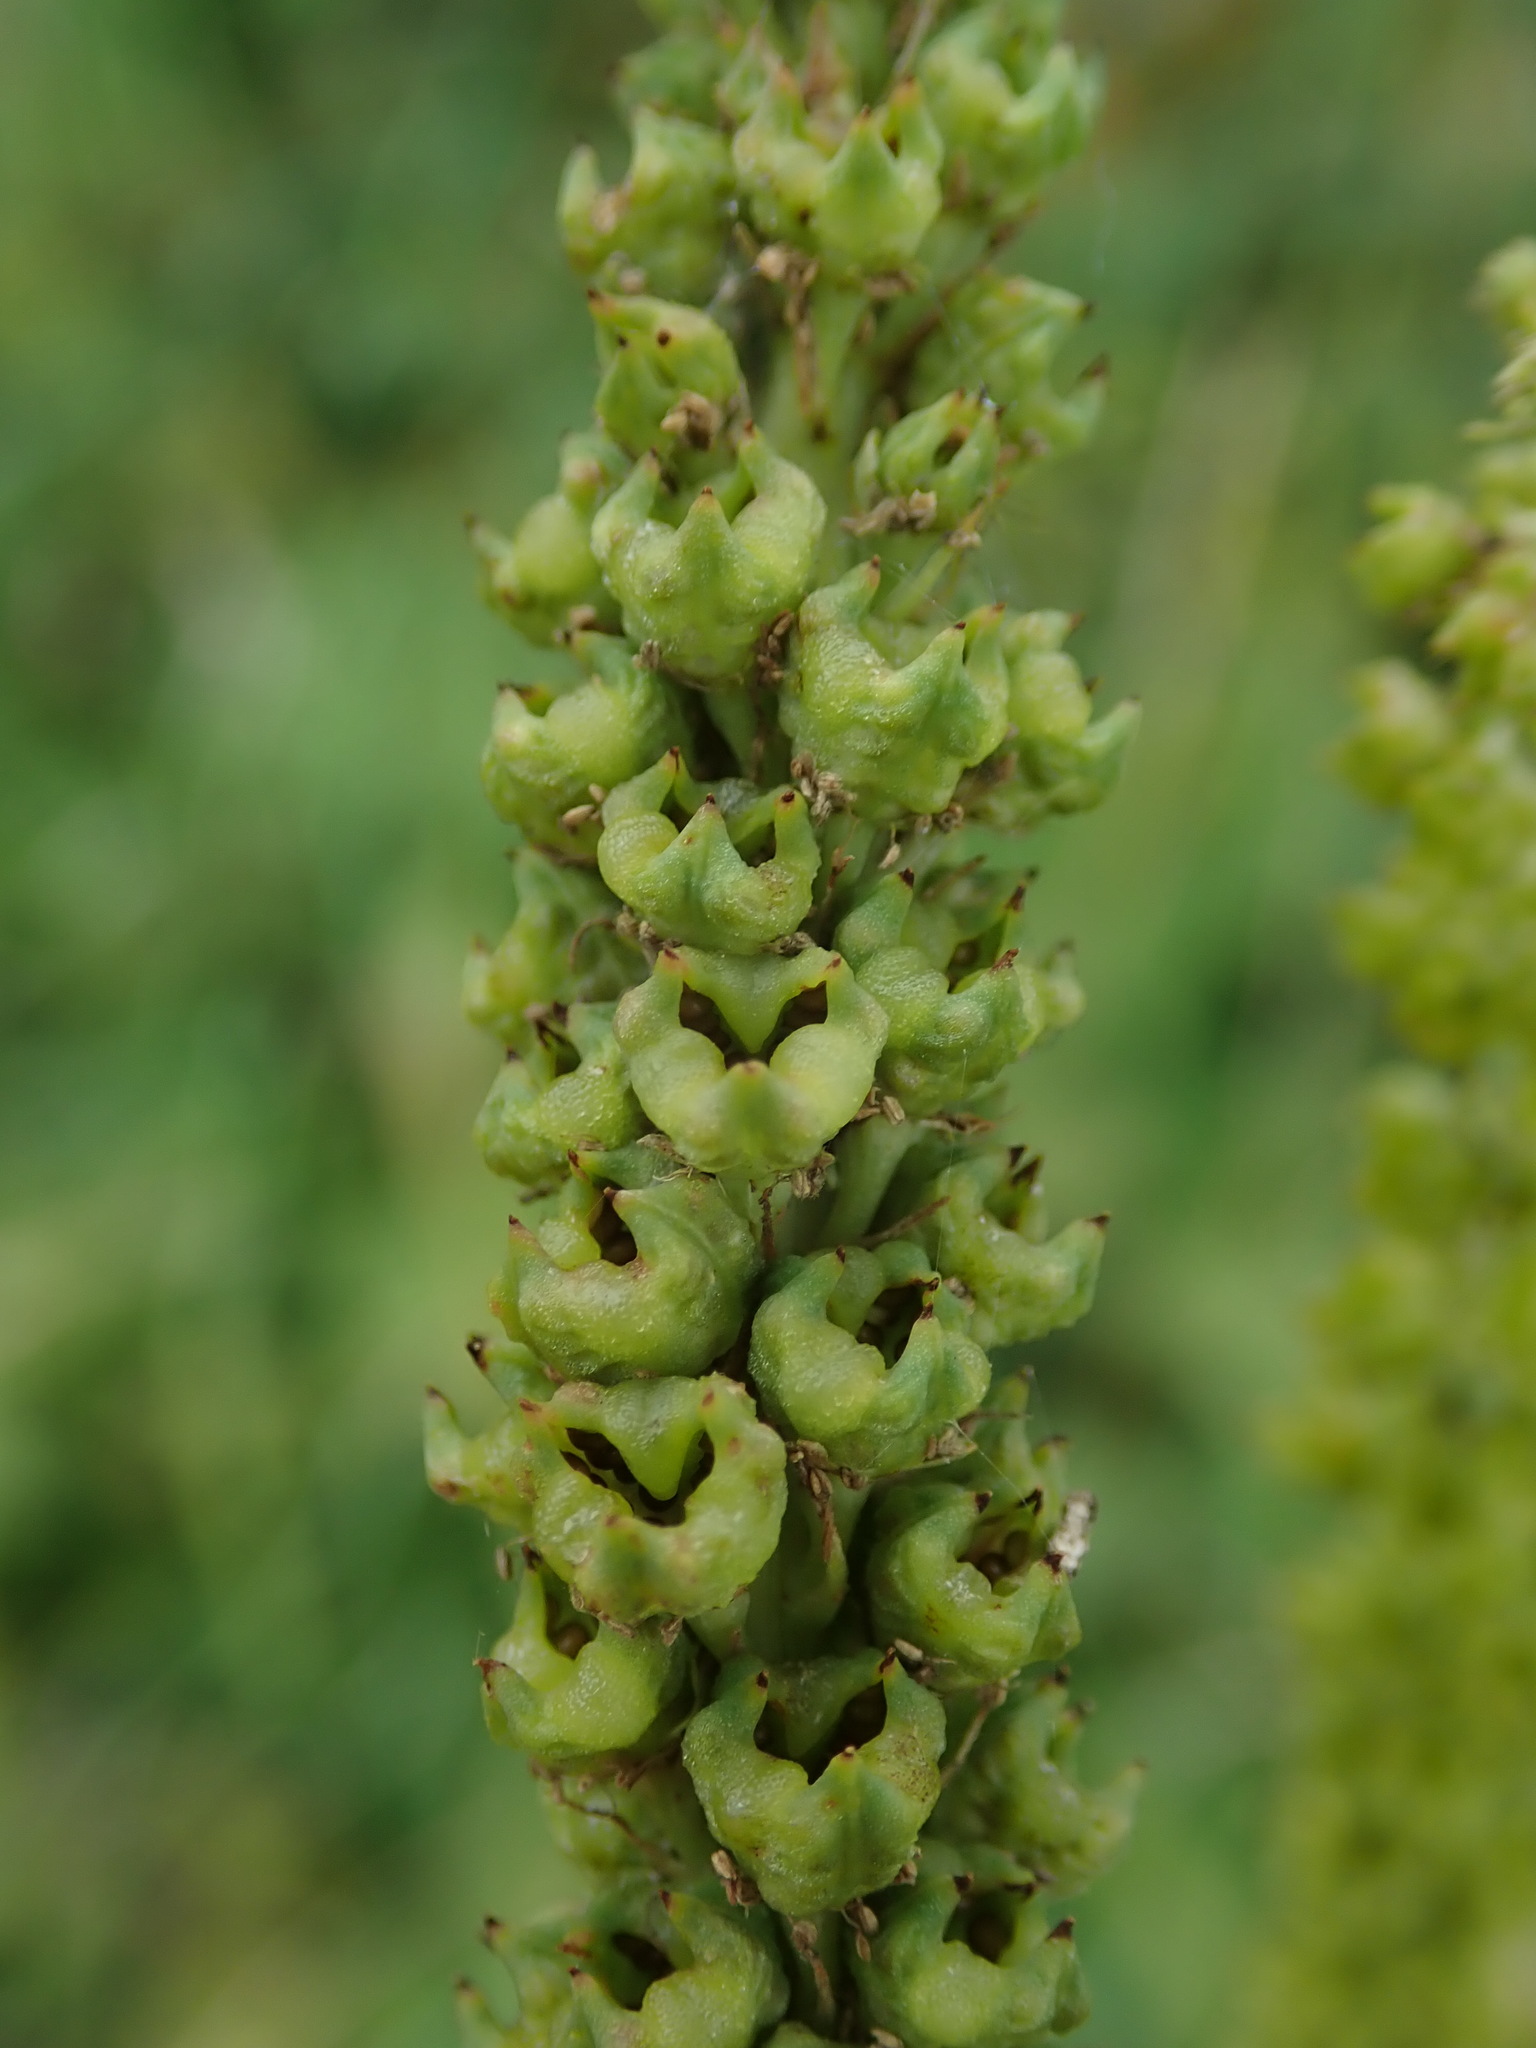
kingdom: Plantae
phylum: Tracheophyta
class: Magnoliopsida
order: Brassicales
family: Resedaceae
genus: Reseda
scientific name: Reseda luteola
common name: Weld
